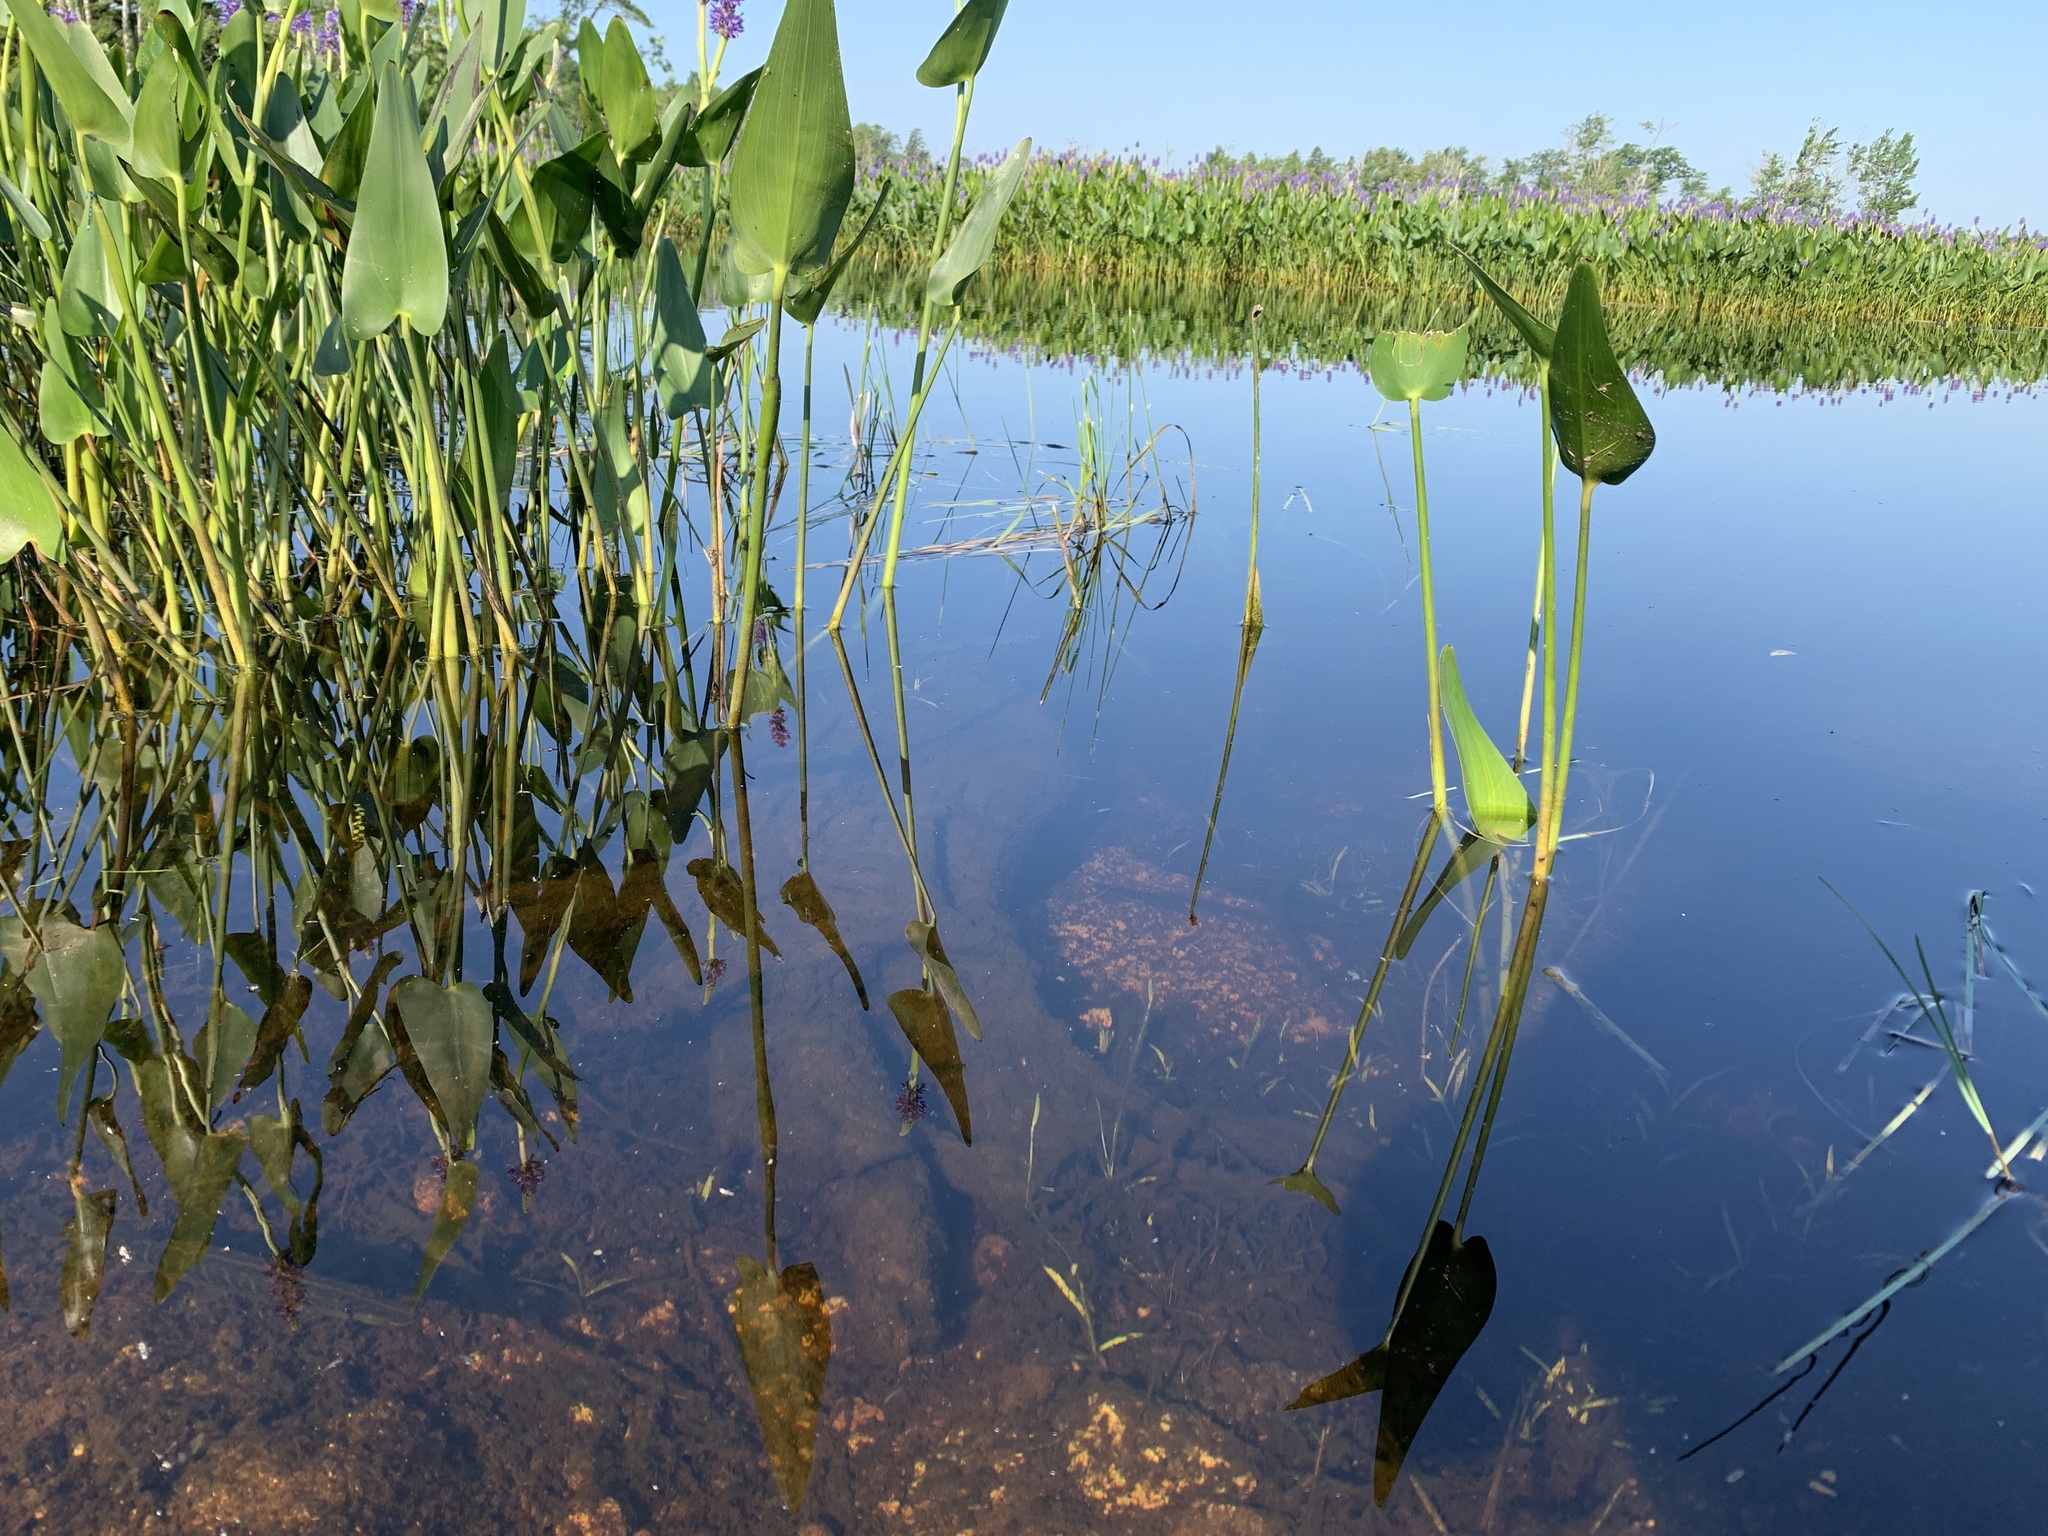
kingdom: Animalia
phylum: Chordata
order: Esociformes
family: Esocidae
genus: Esox
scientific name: Esox niger
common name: Chain pickerel
